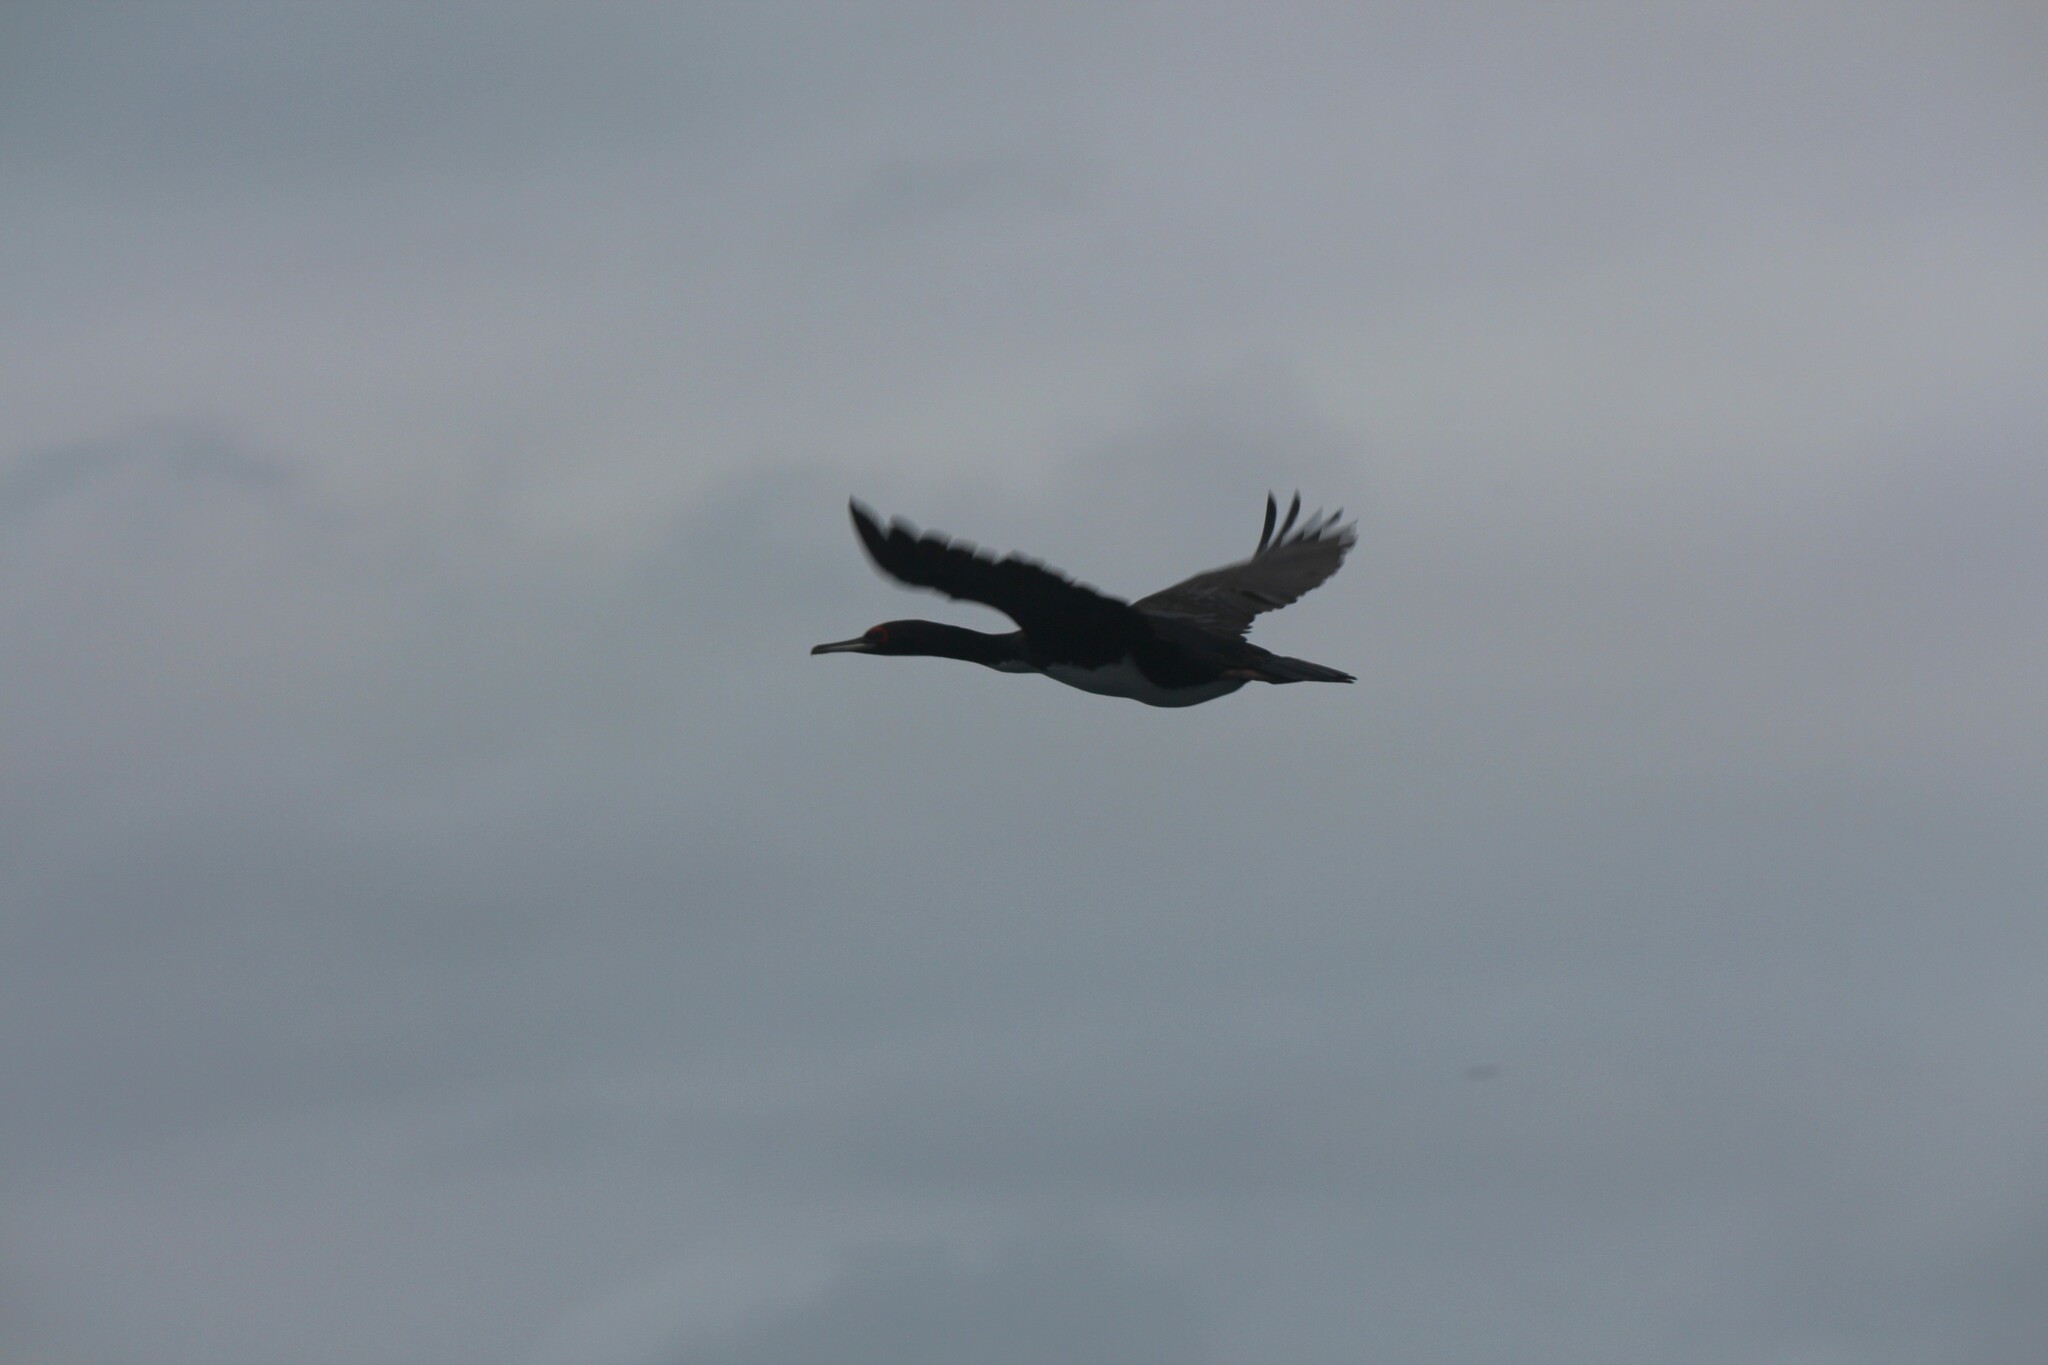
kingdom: Animalia
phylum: Chordata
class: Aves
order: Suliformes
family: Phalacrocoracidae
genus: Leucocarbo
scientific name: Leucocarbo bougainvillii
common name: Guanay cormorant
